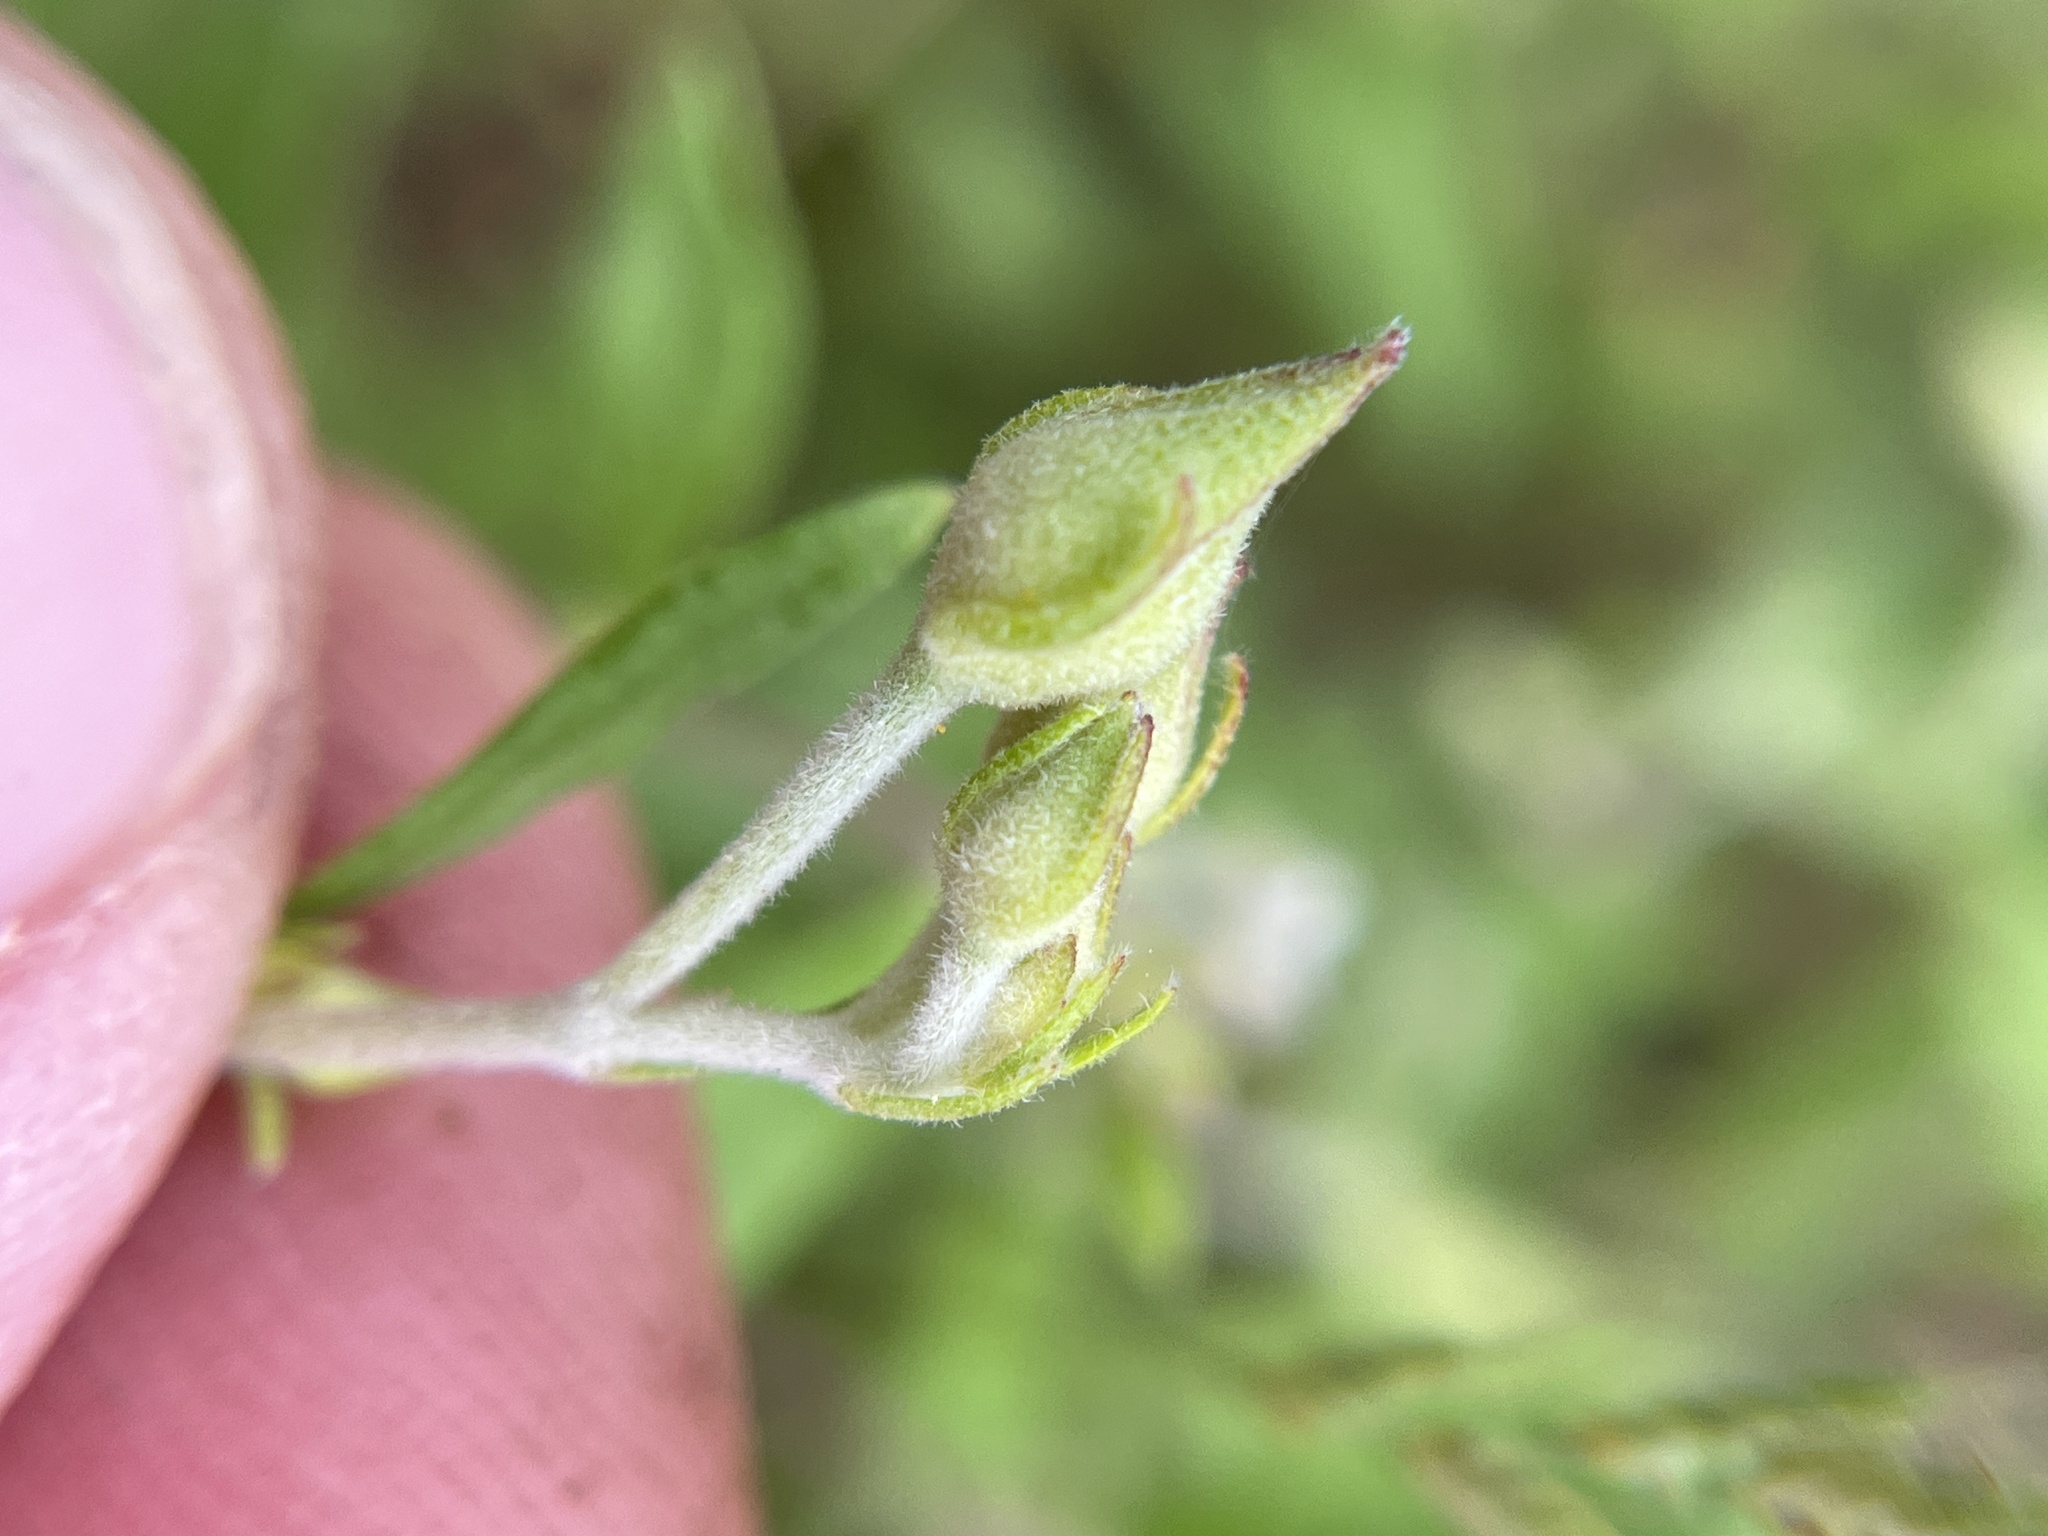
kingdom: Plantae
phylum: Tracheophyta
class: Magnoliopsida
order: Malvales
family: Cistaceae
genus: Crocanthemum
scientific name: Crocanthemum georgianum
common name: Georgia frostweed
